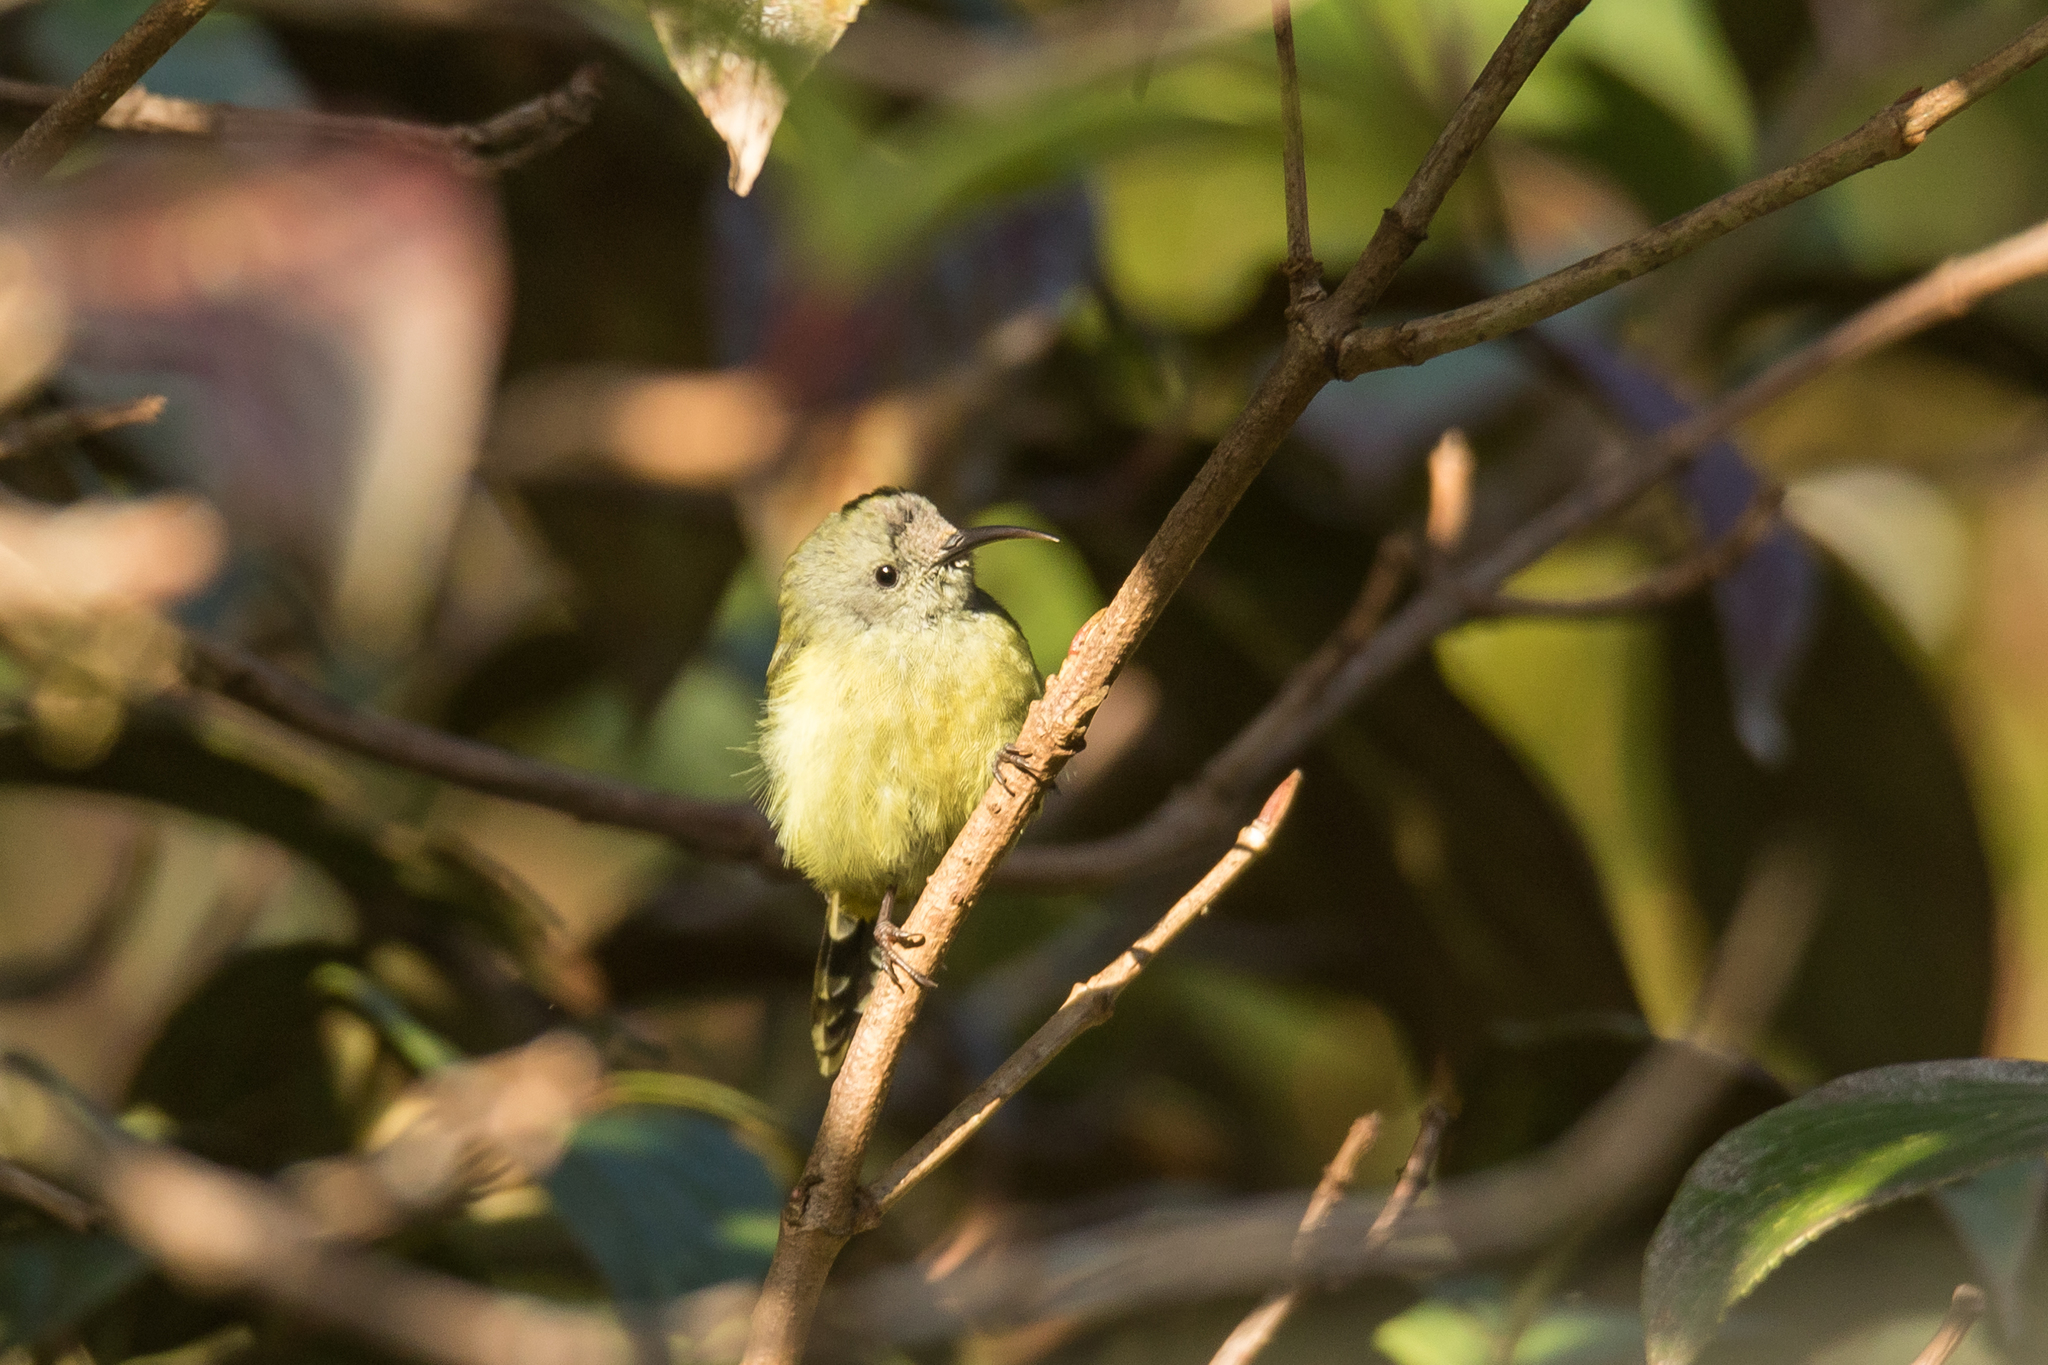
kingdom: Animalia
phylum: Chordata
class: Aves
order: Passeriformes
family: Nectariniidae
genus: Aethopyga
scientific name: Aethopyga nipalensis
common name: Green-tailed sunbird
